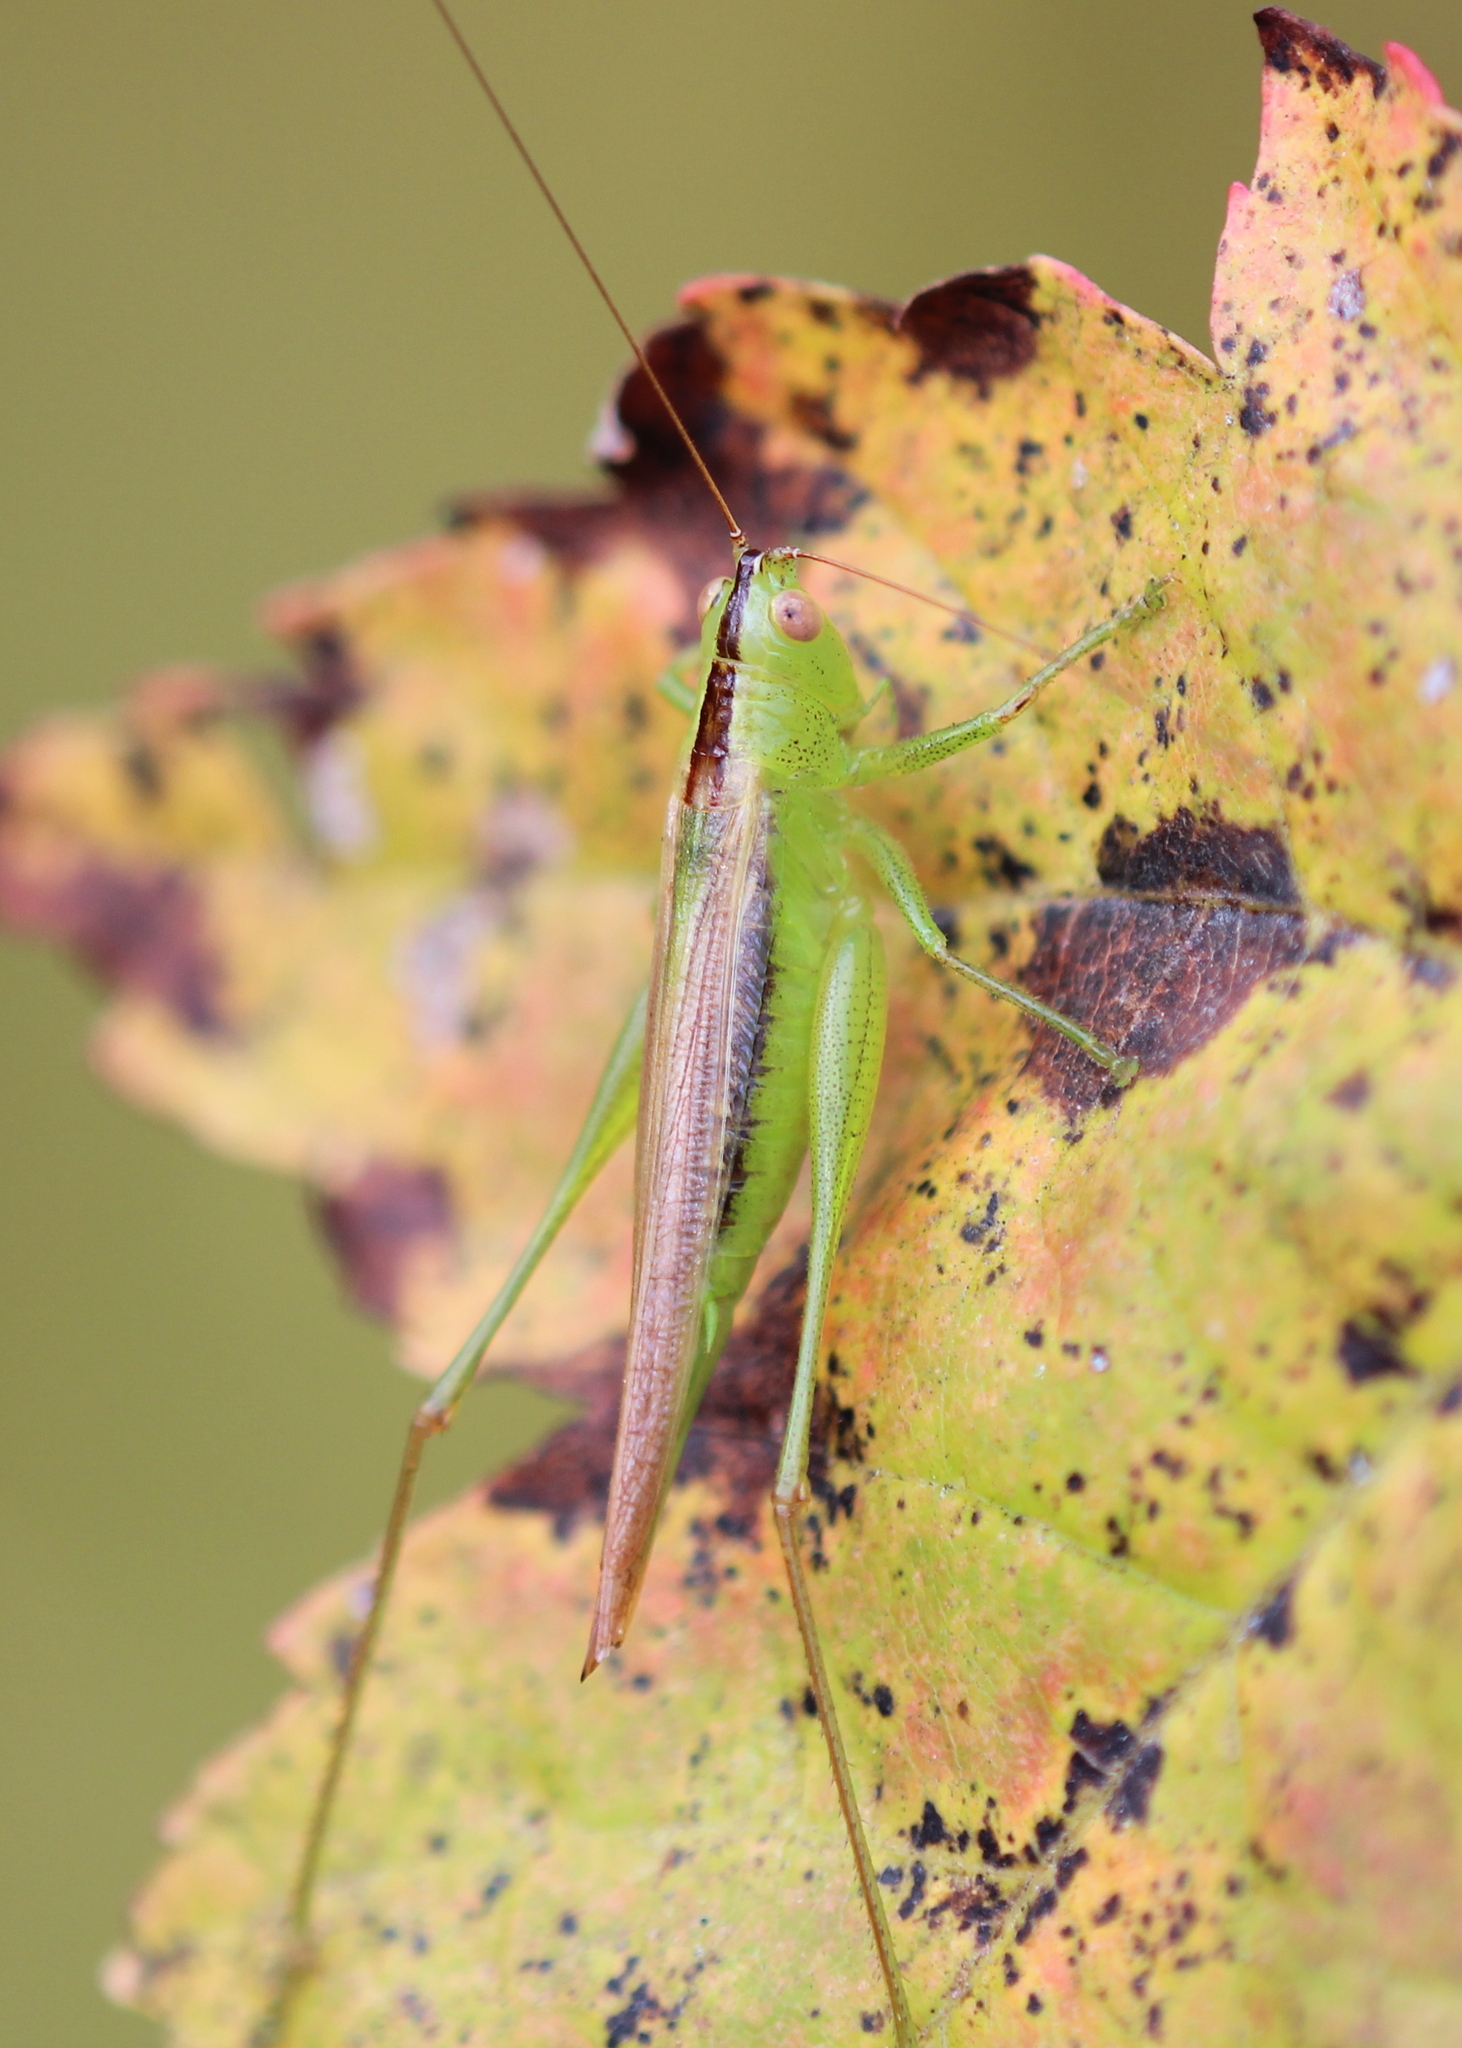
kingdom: Animalia
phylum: Arthropoda
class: Insecta
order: Orthoptera
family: Tettigoniidae
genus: Conocephalus
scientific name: Conocephalus fasciatus
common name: Slender meadow katydid
